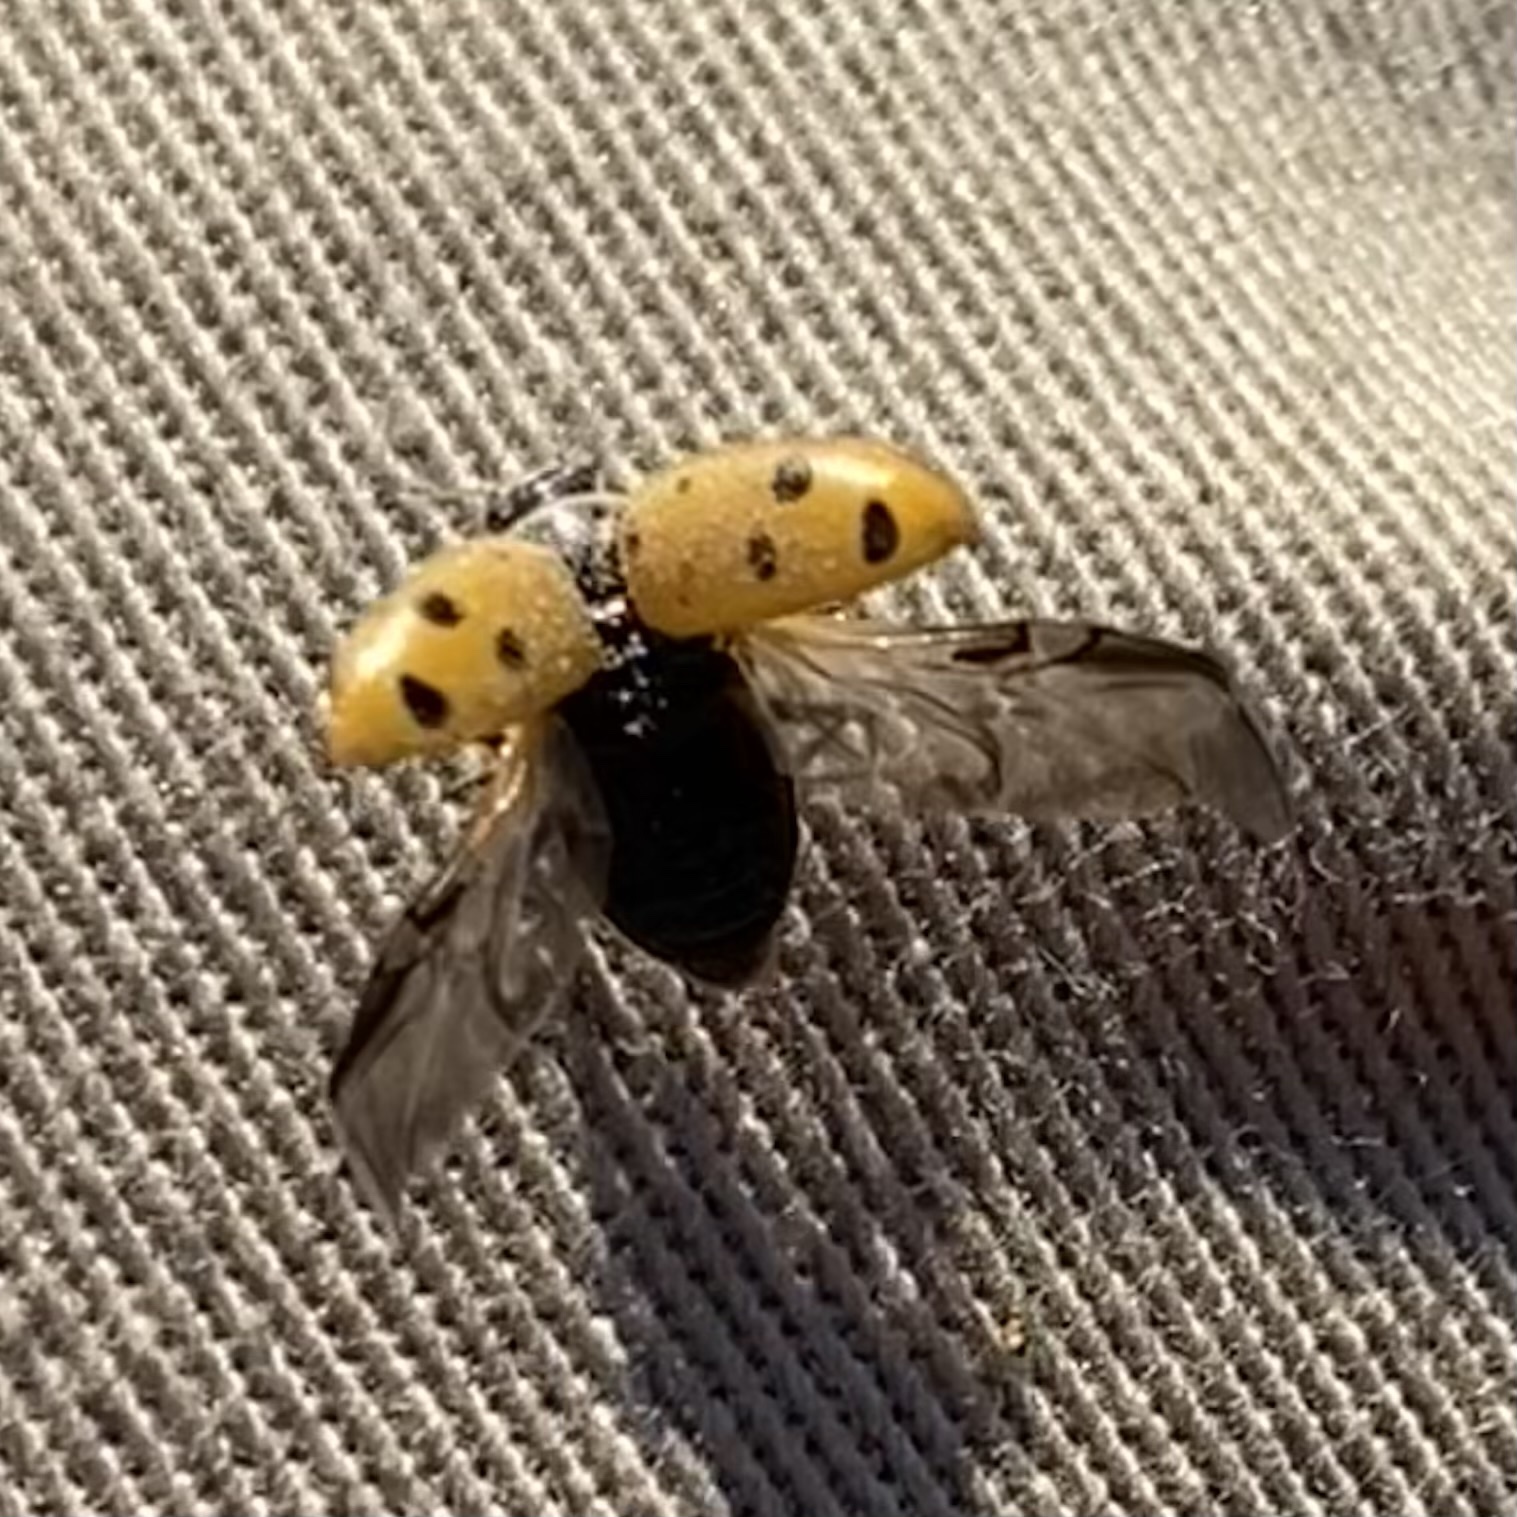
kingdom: Animalia
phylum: Arthropoda
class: Insecta
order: Coleoptera
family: Coccinellidae
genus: Hippodamia
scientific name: Hippodamia convergens
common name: Convergent lady beetle
